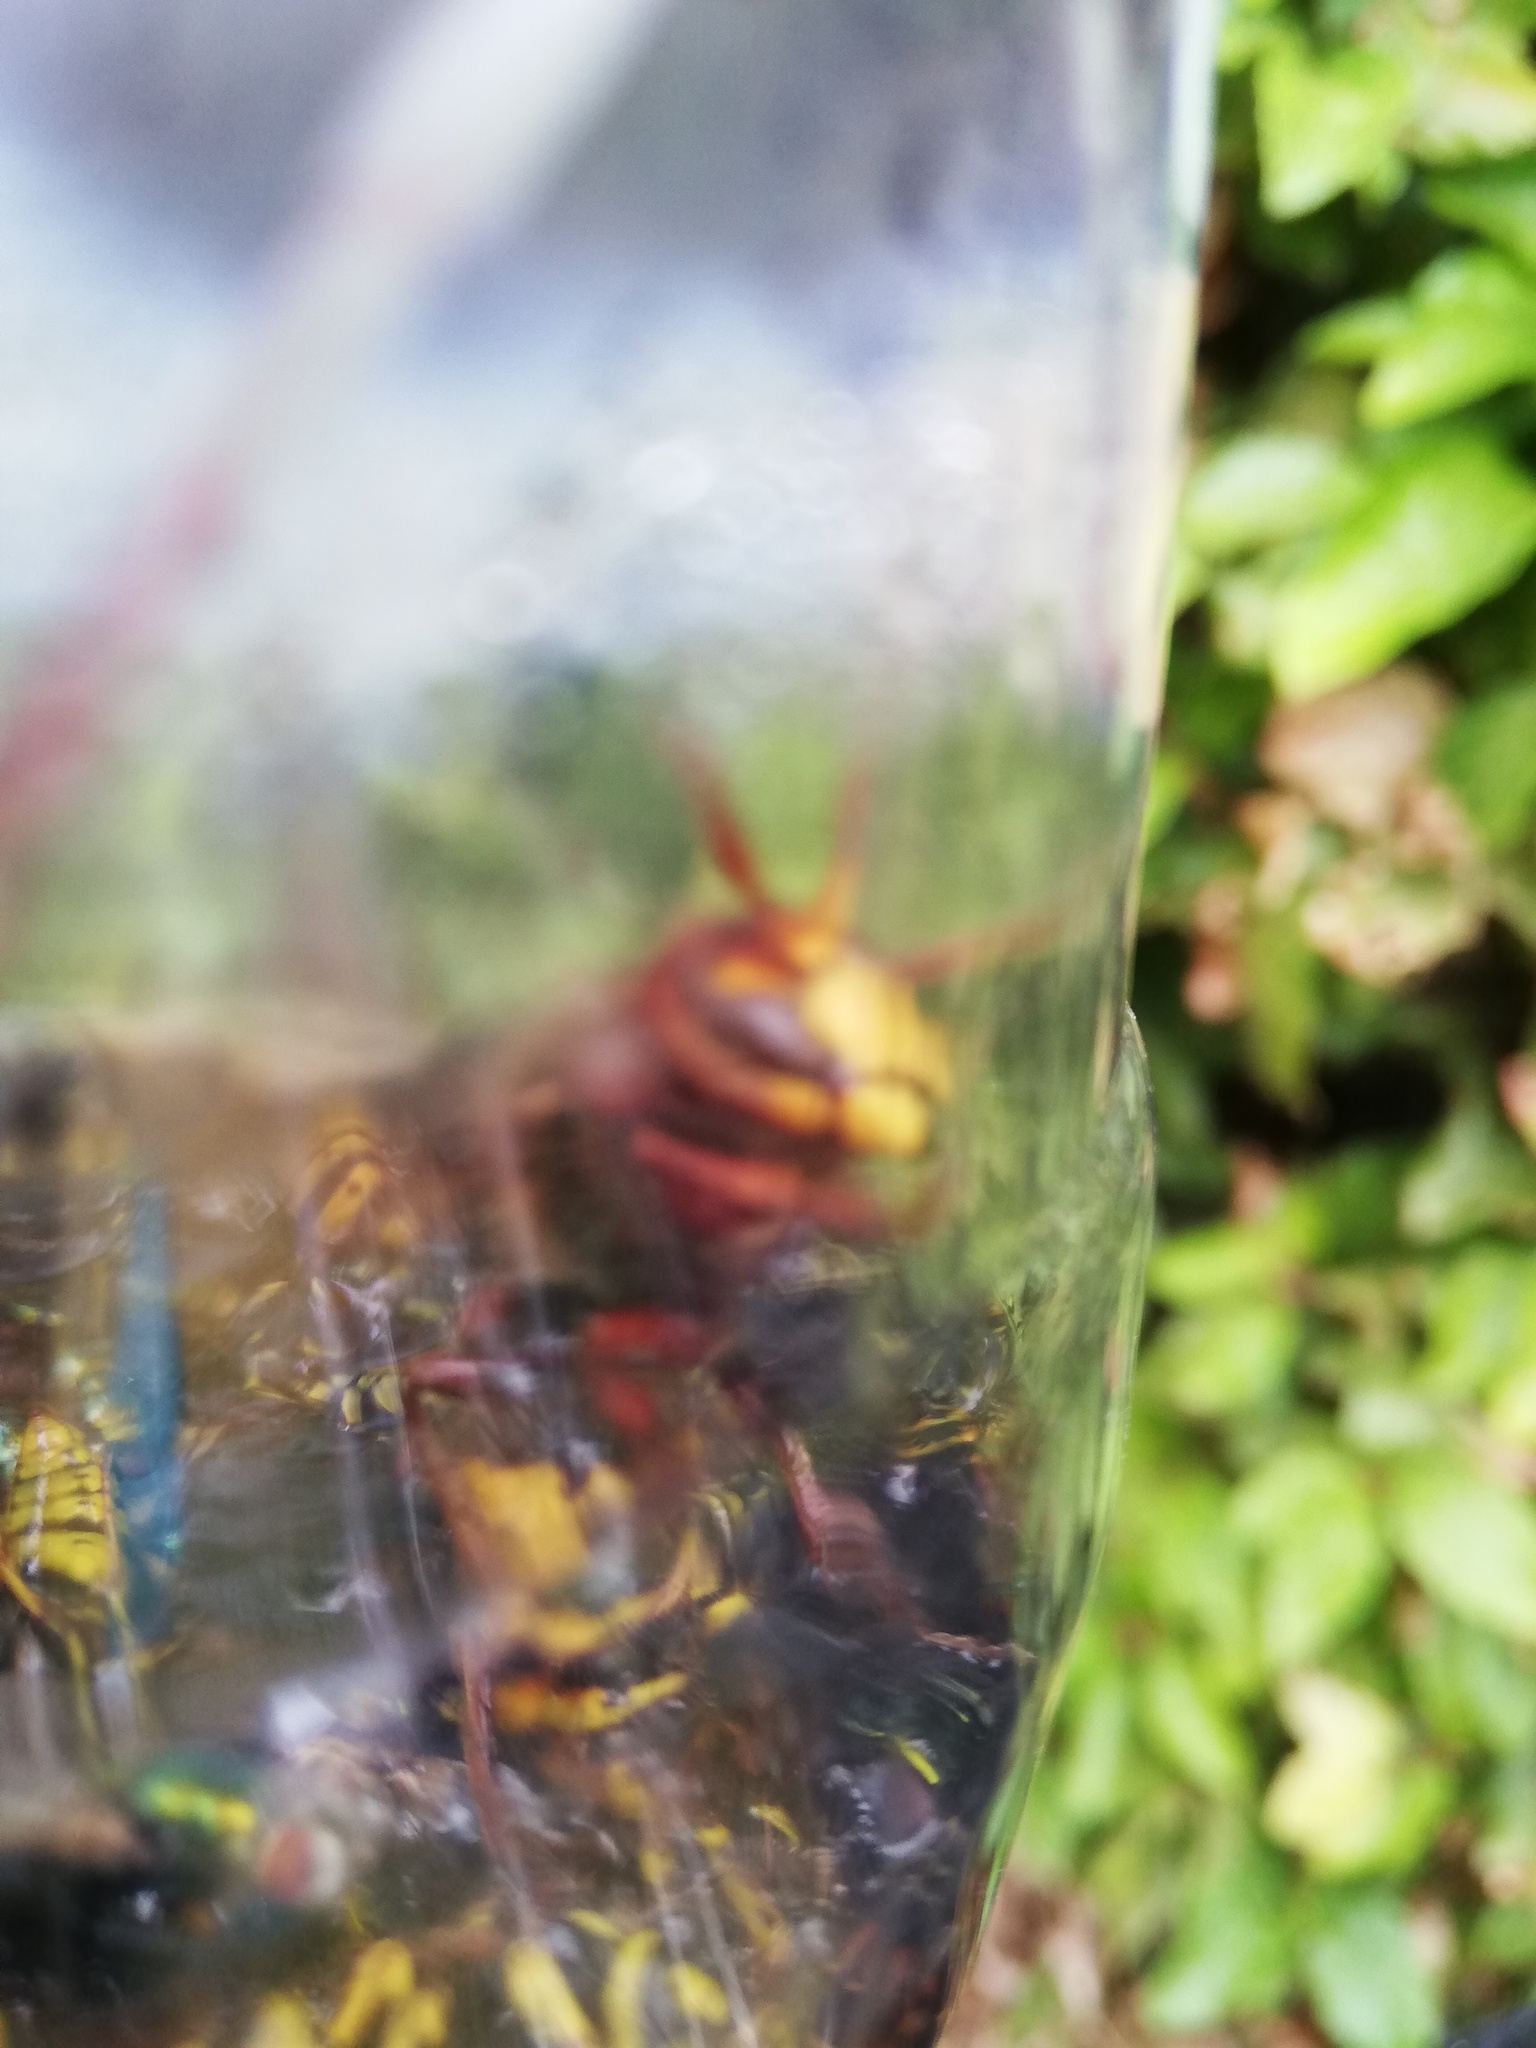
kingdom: Animalia
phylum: Arthropoda
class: Insecta
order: Hymenoptera
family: Vespidae
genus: Vespa
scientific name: Vespa crabro
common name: Hornet
